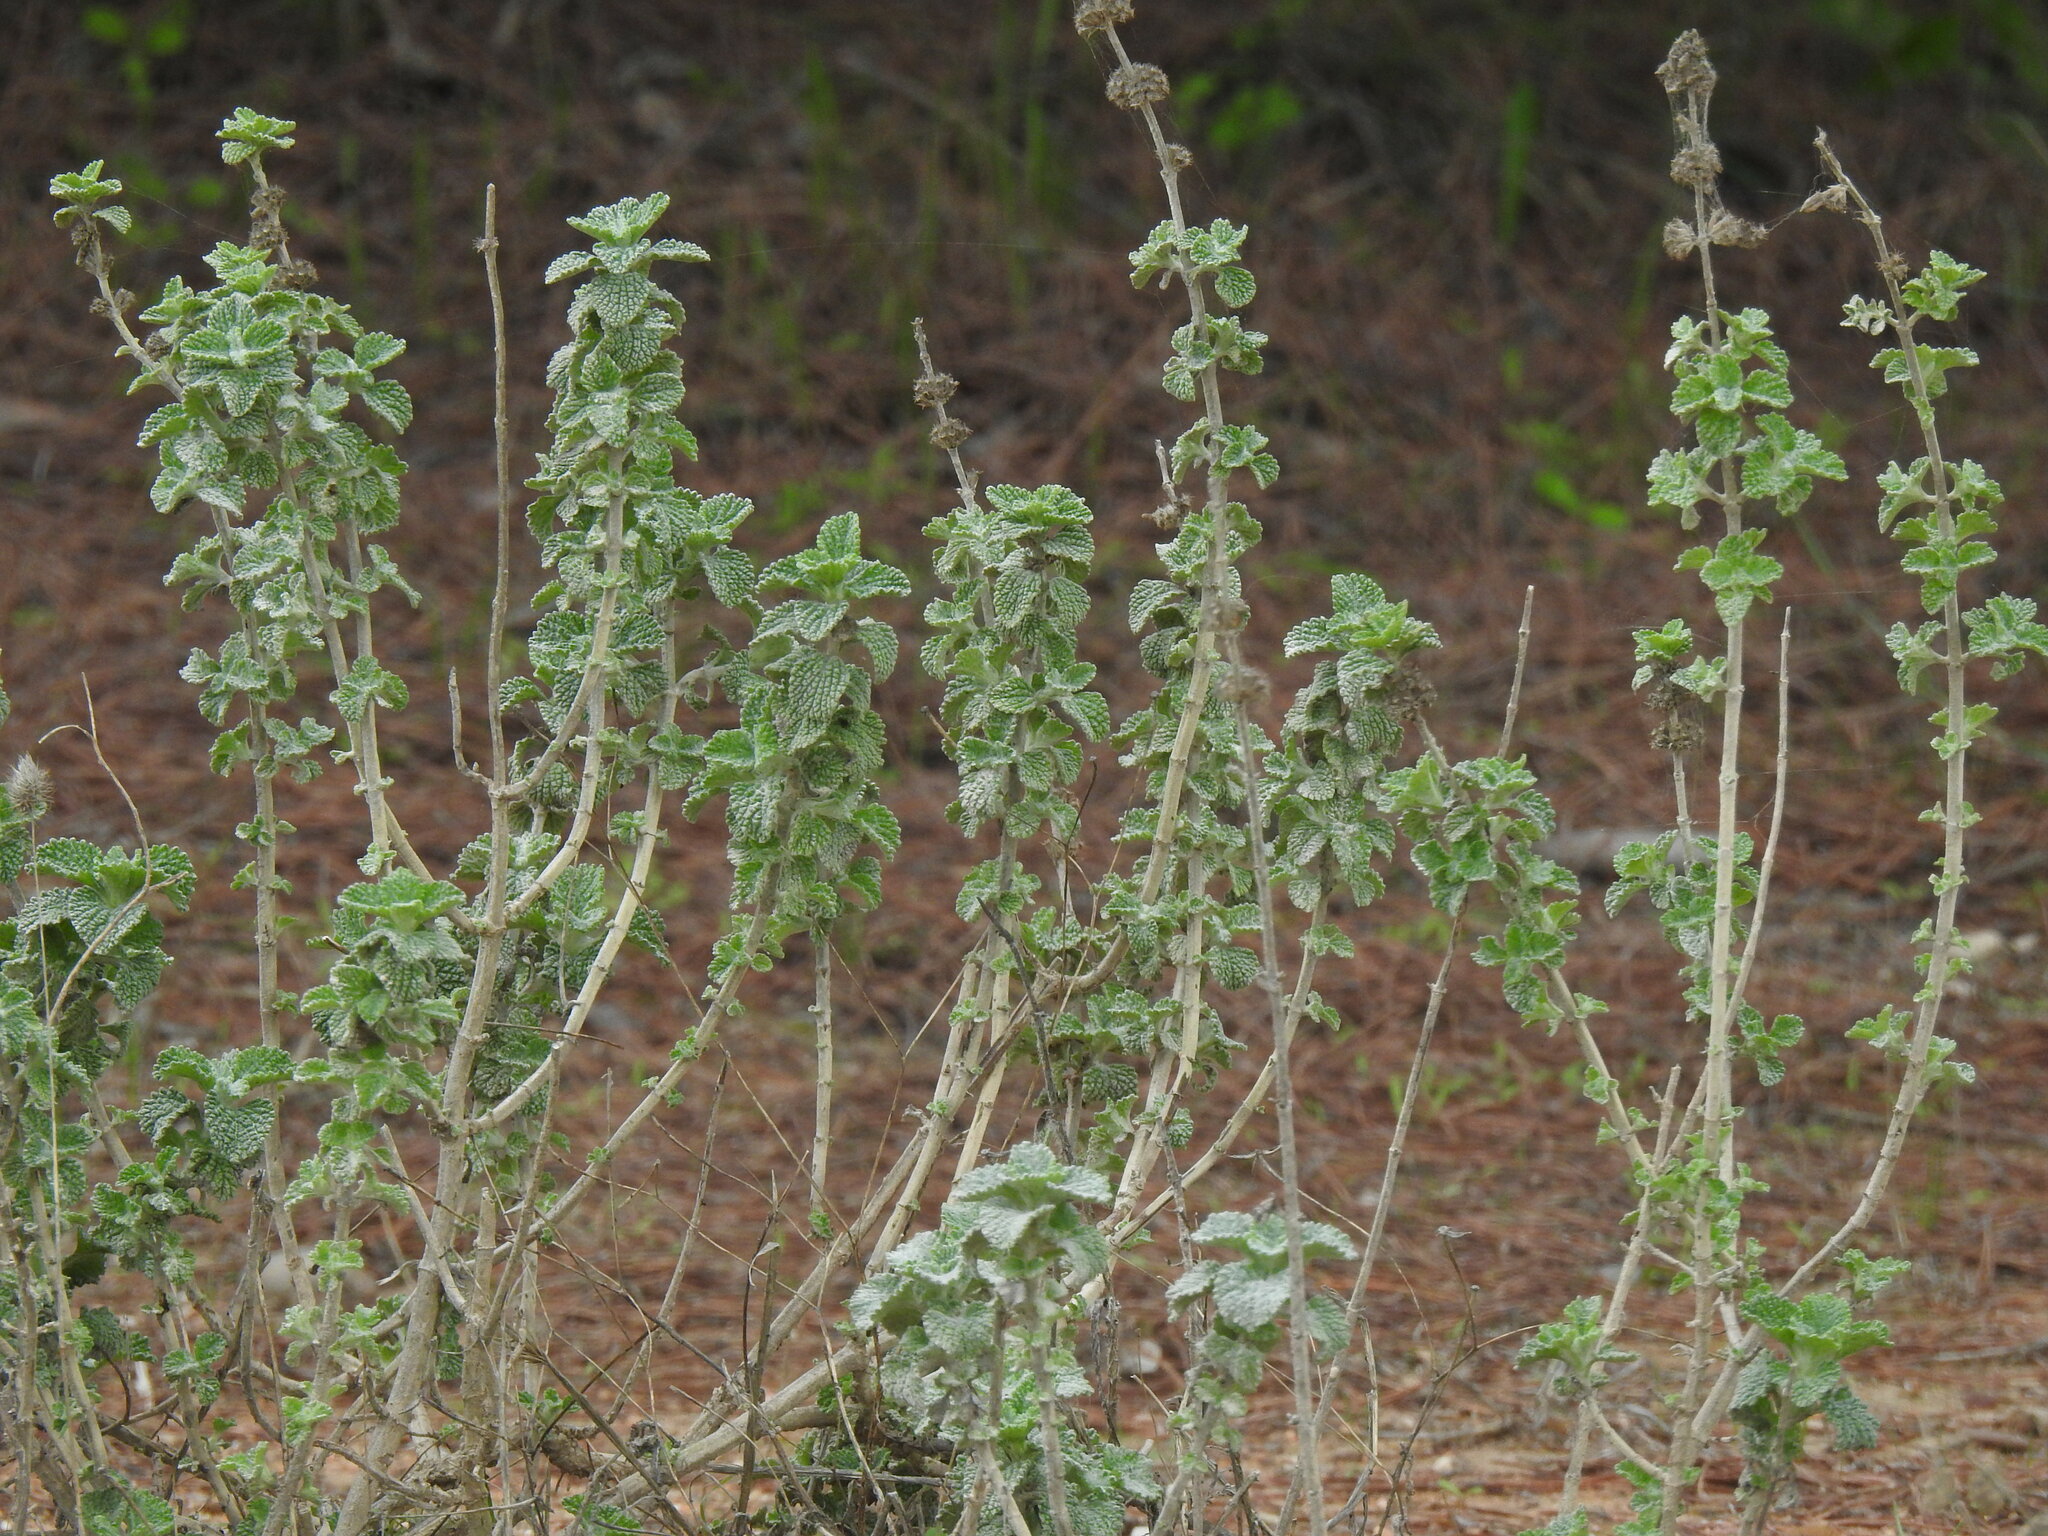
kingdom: Plantae
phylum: Tracheophyta
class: Magnoliopsida
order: Lamiales
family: Lamiaceae
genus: Marrubium
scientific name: Marrubium vulgare
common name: Horehound
